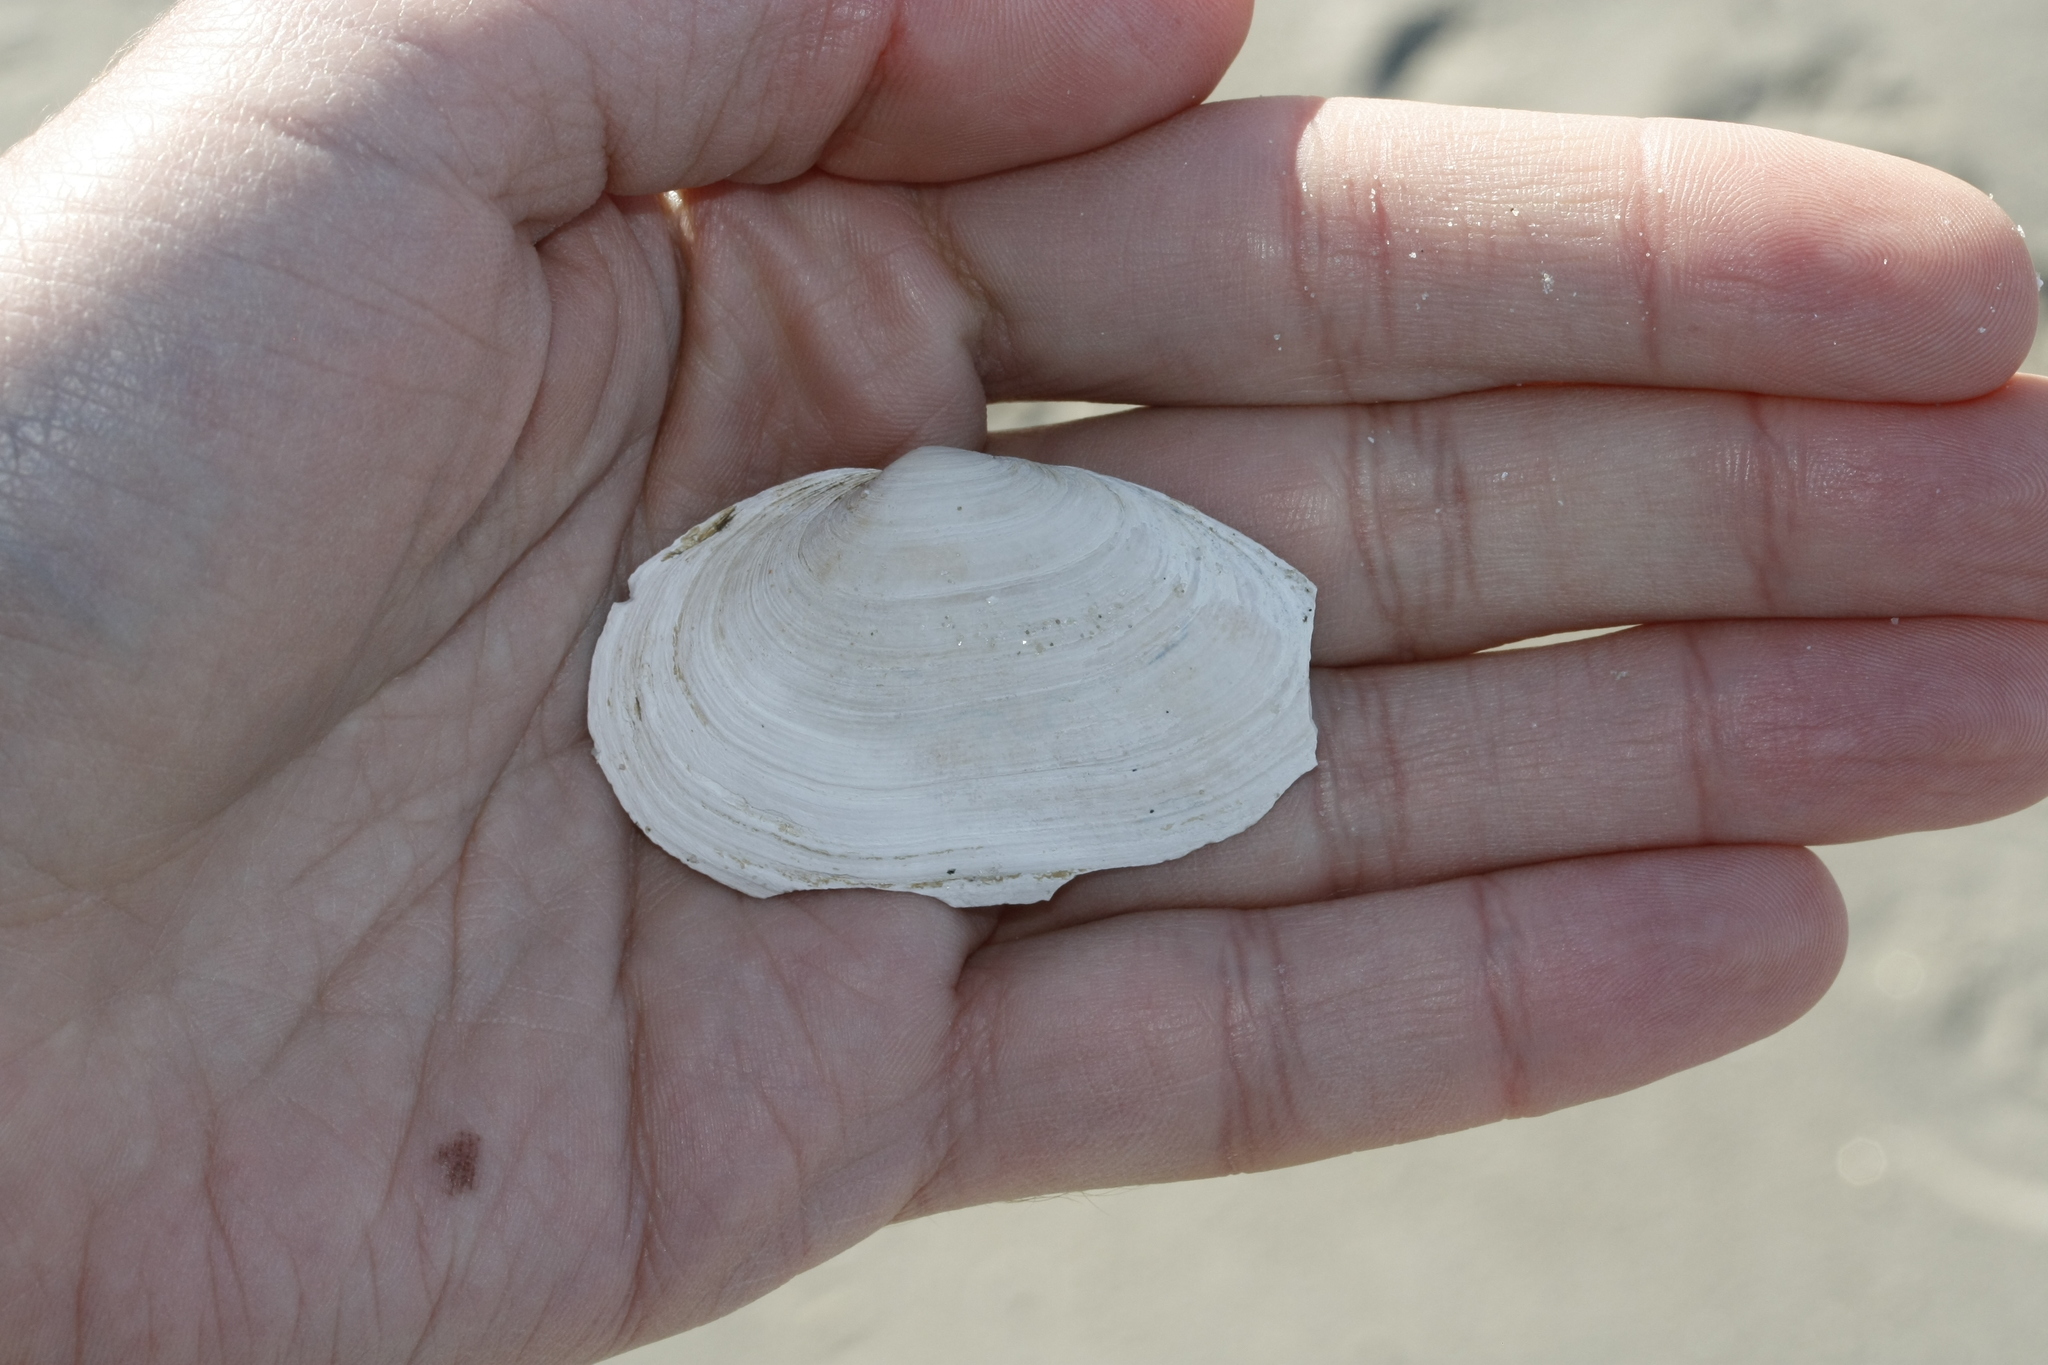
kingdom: Animalia
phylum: Mollusca
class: Bivalvia
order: Myida
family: Myidae
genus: Mya
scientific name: Mya arenaria
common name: Soft-shelled clam
